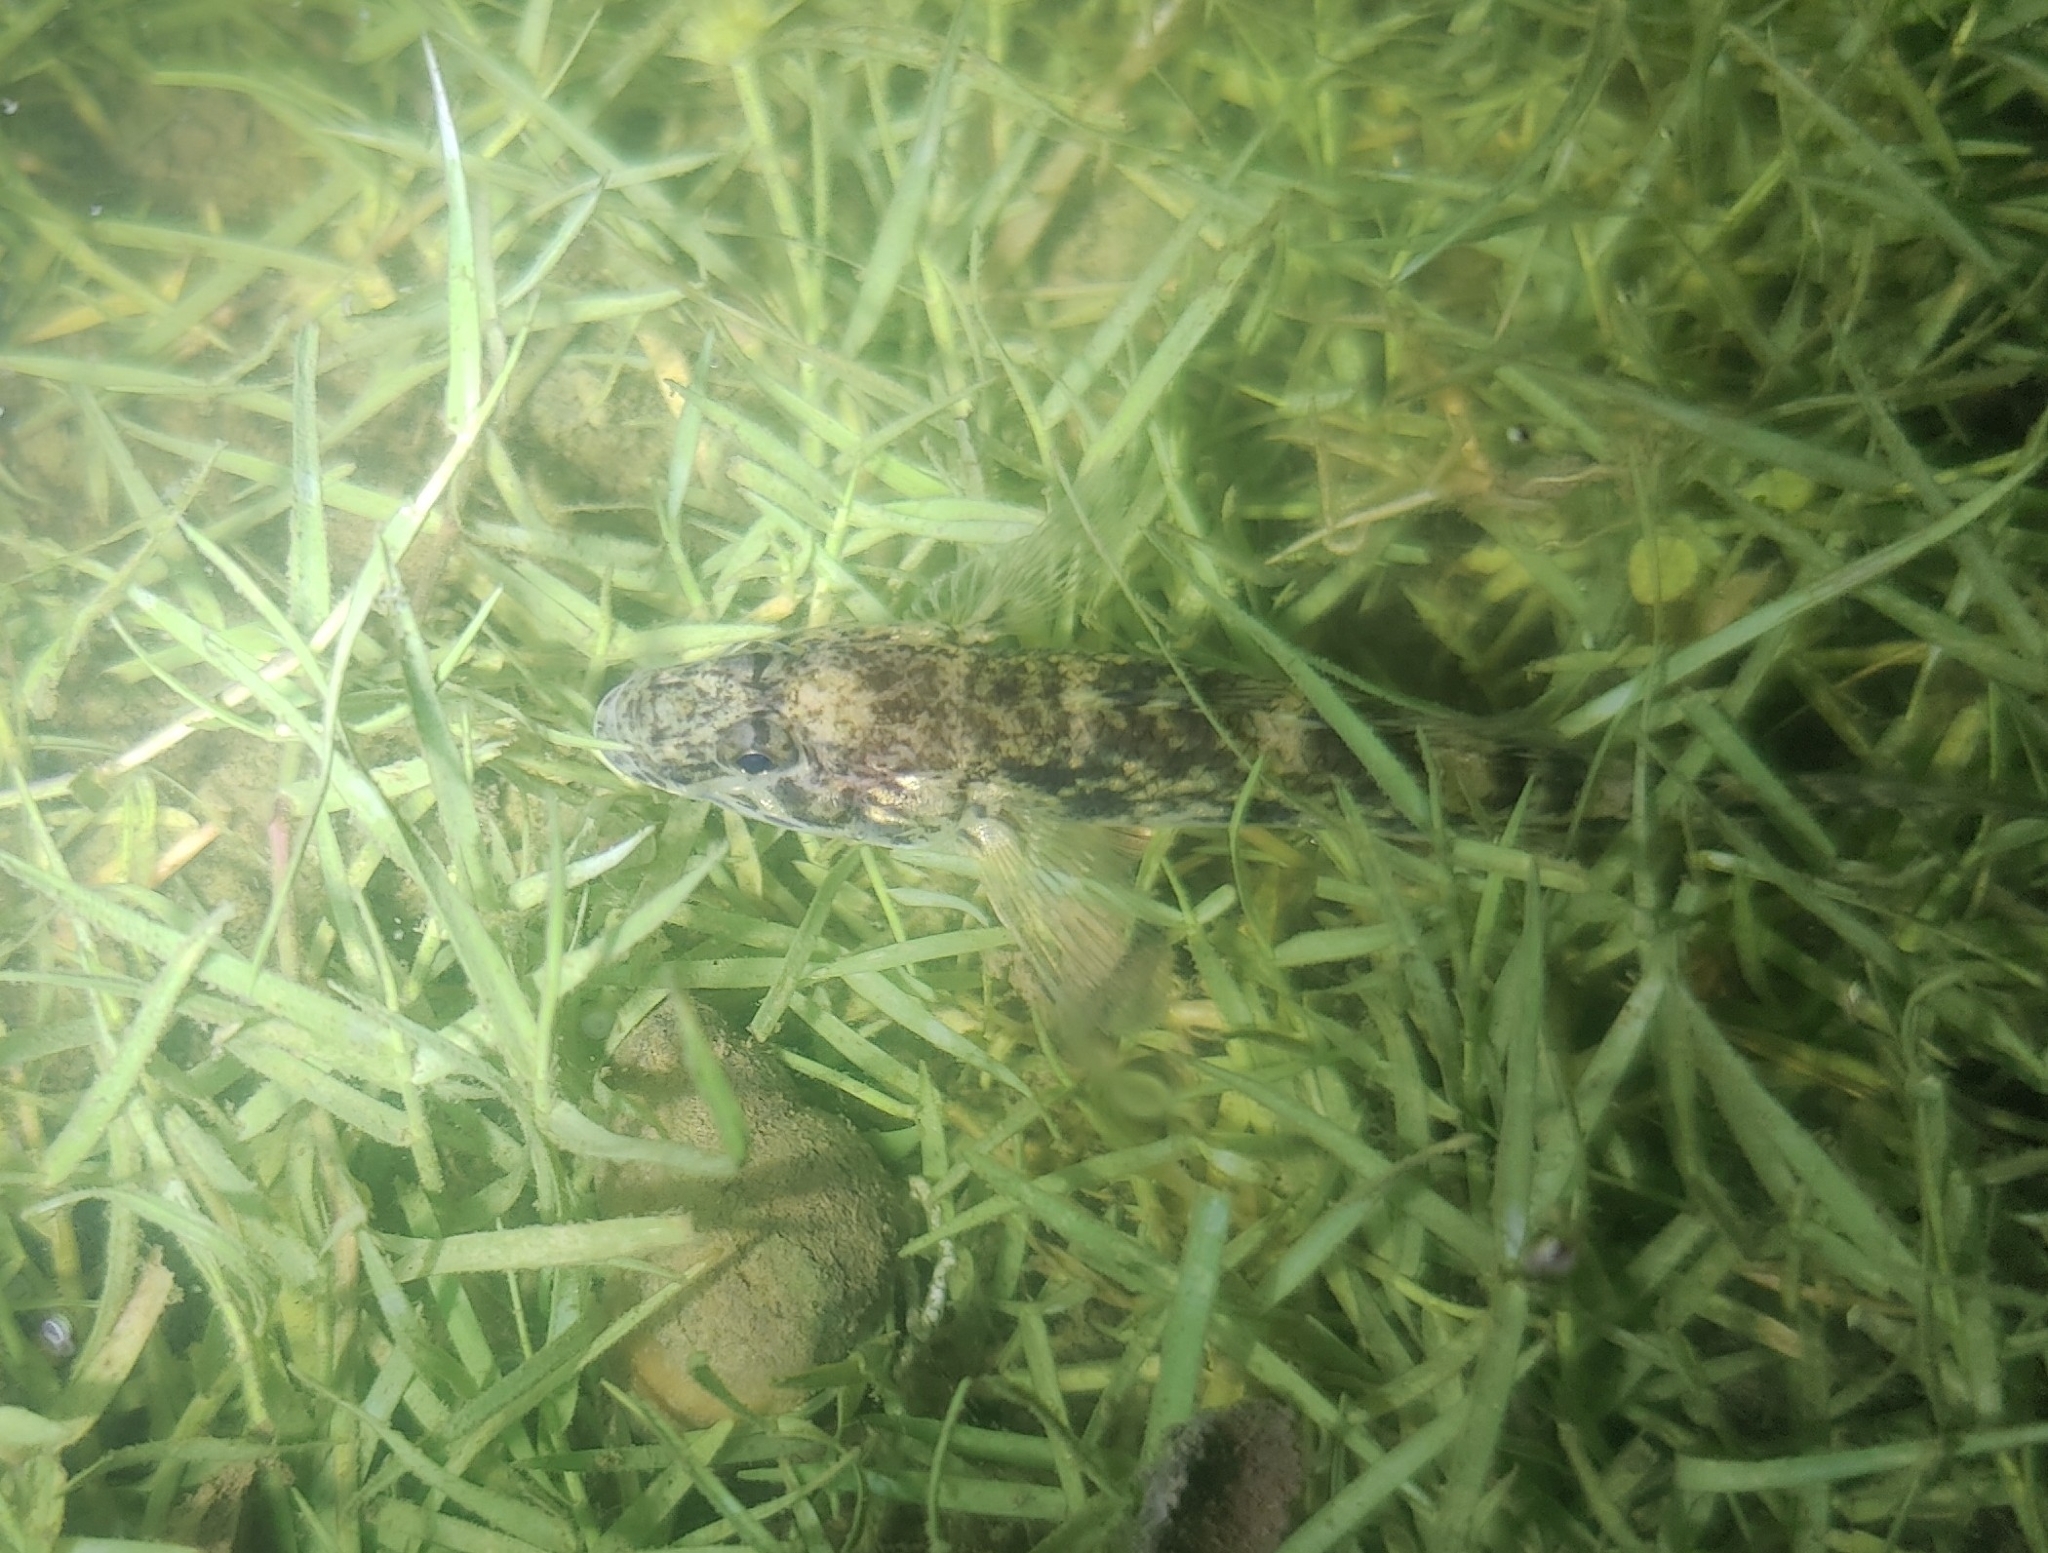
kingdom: Animalia
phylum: Chordata
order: Perciformes
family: Gobiidae
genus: Glossogobius
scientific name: Glossogobius giuris
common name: Tank goby
